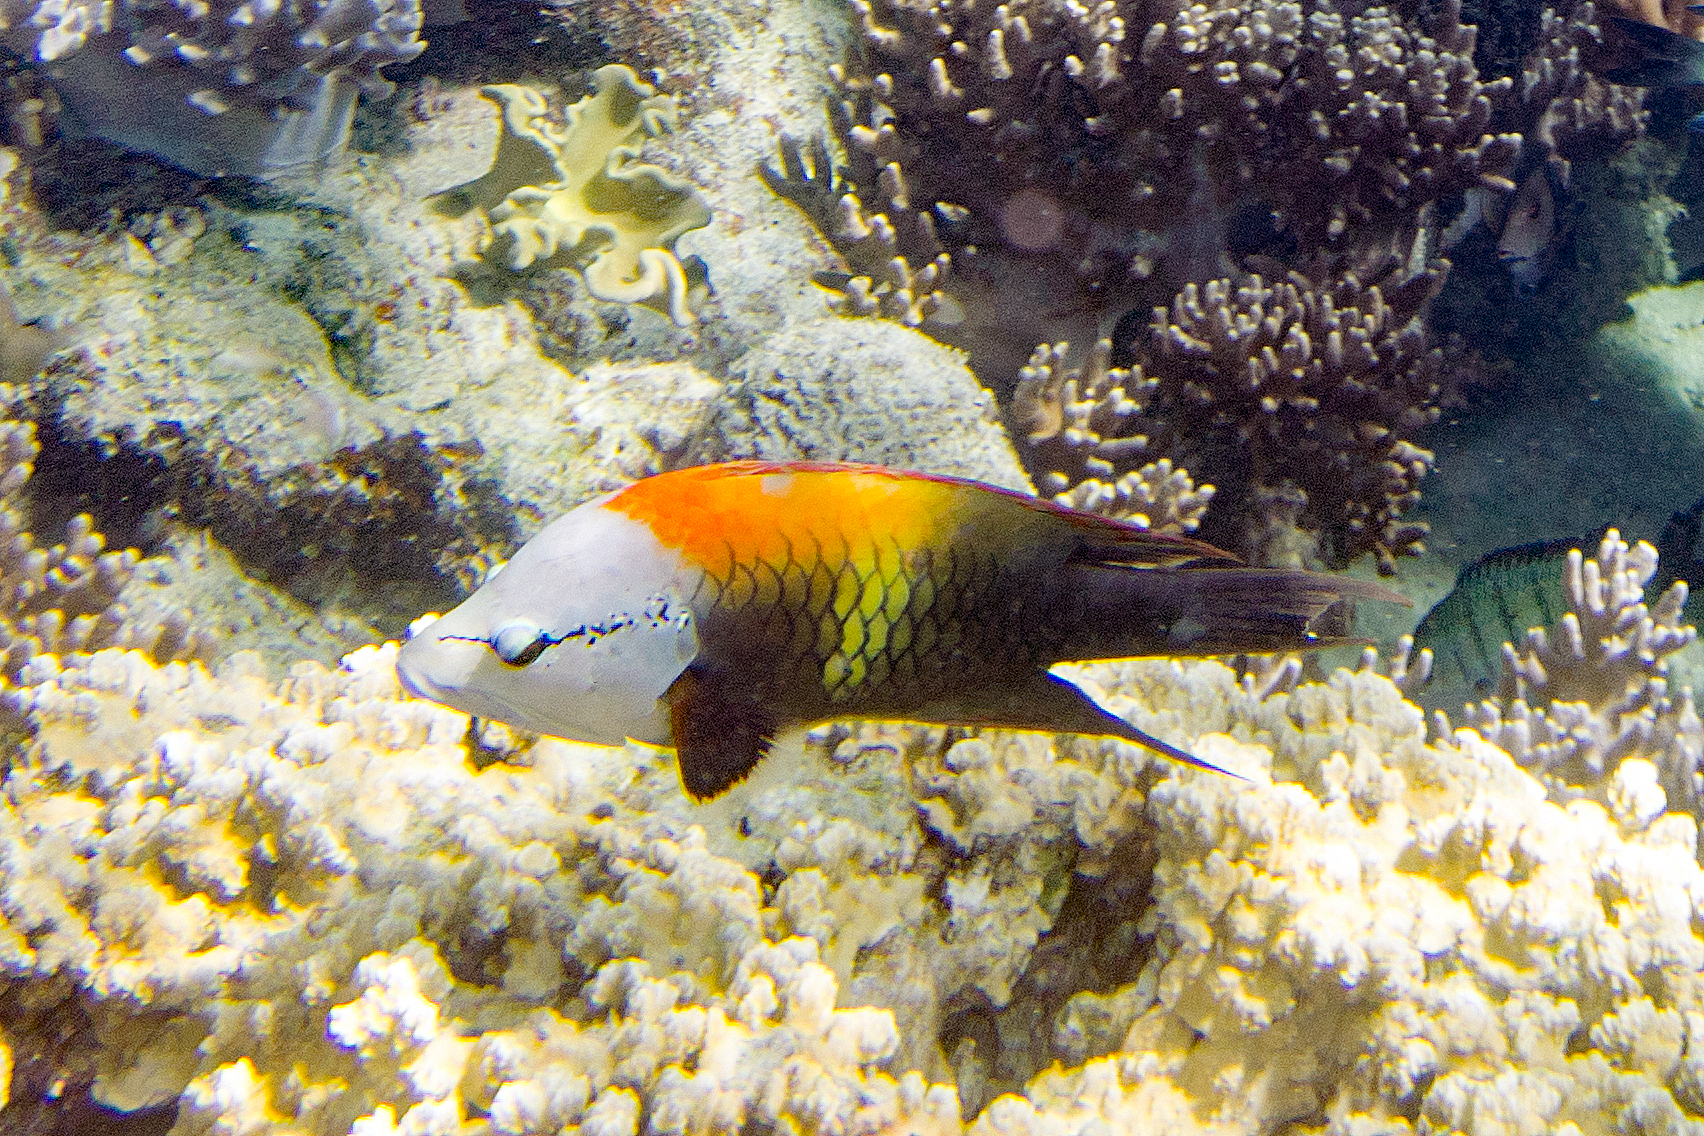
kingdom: Animalia
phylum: Chordata
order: Perciformes
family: Labridae
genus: Epibulus
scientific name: Epibulus insidiator
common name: Slingjaw wrasse
